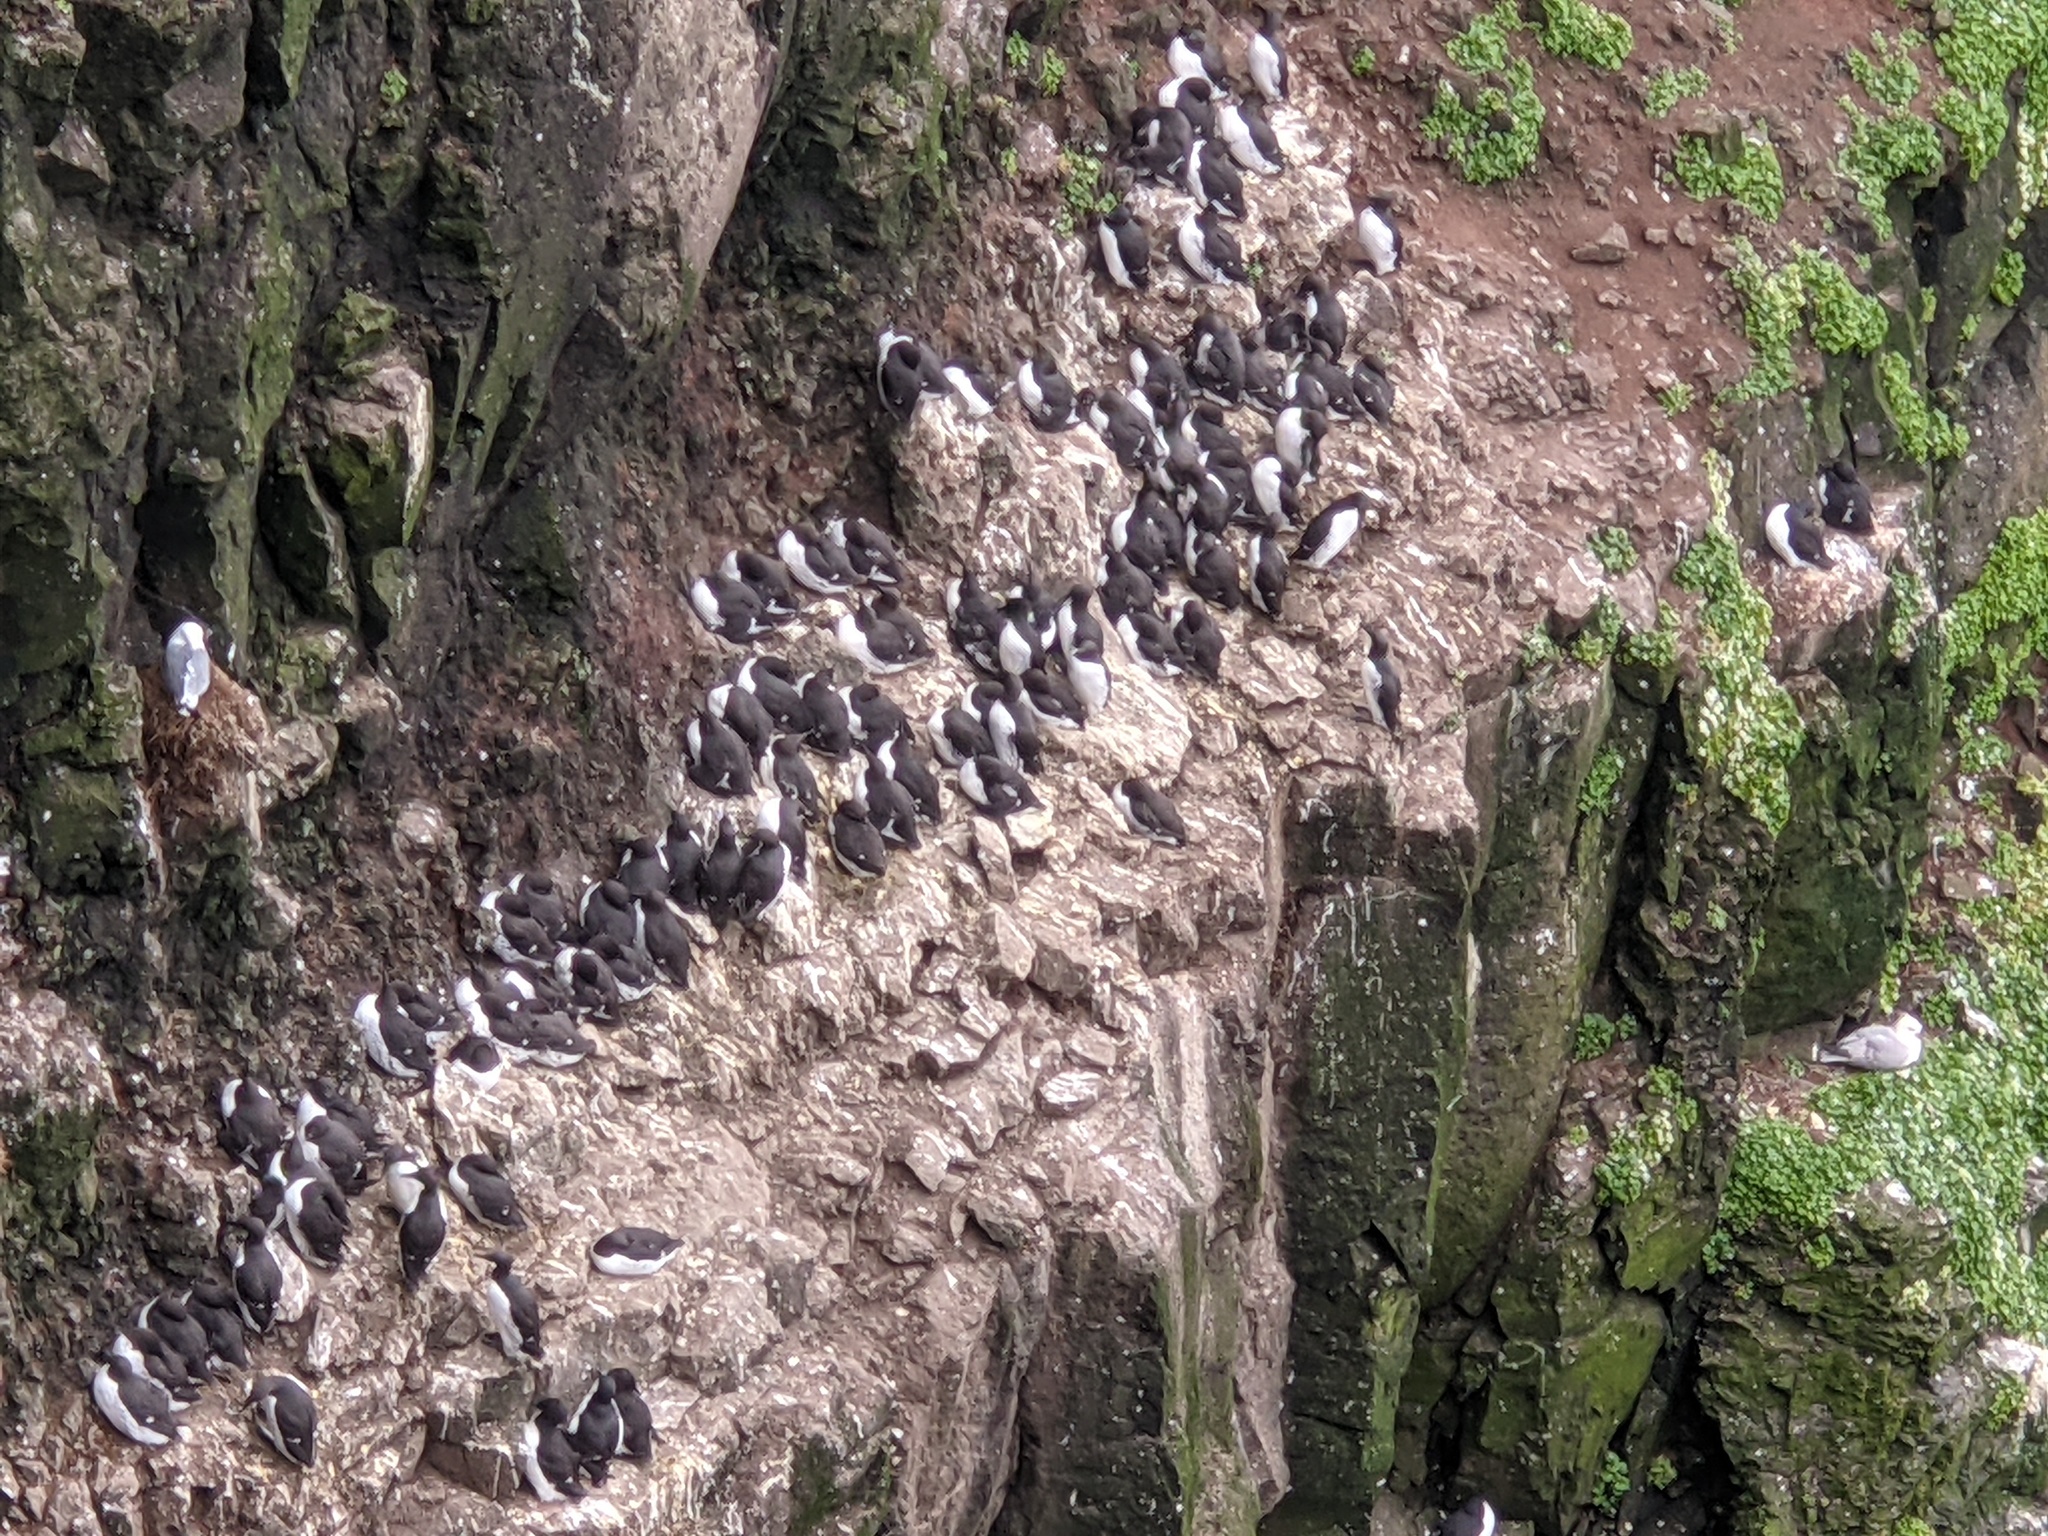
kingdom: Animalia
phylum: Chordata
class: Aves
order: Charadriiformes
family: Alcidae
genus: Uria
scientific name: Uria aalge
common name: Common murre
